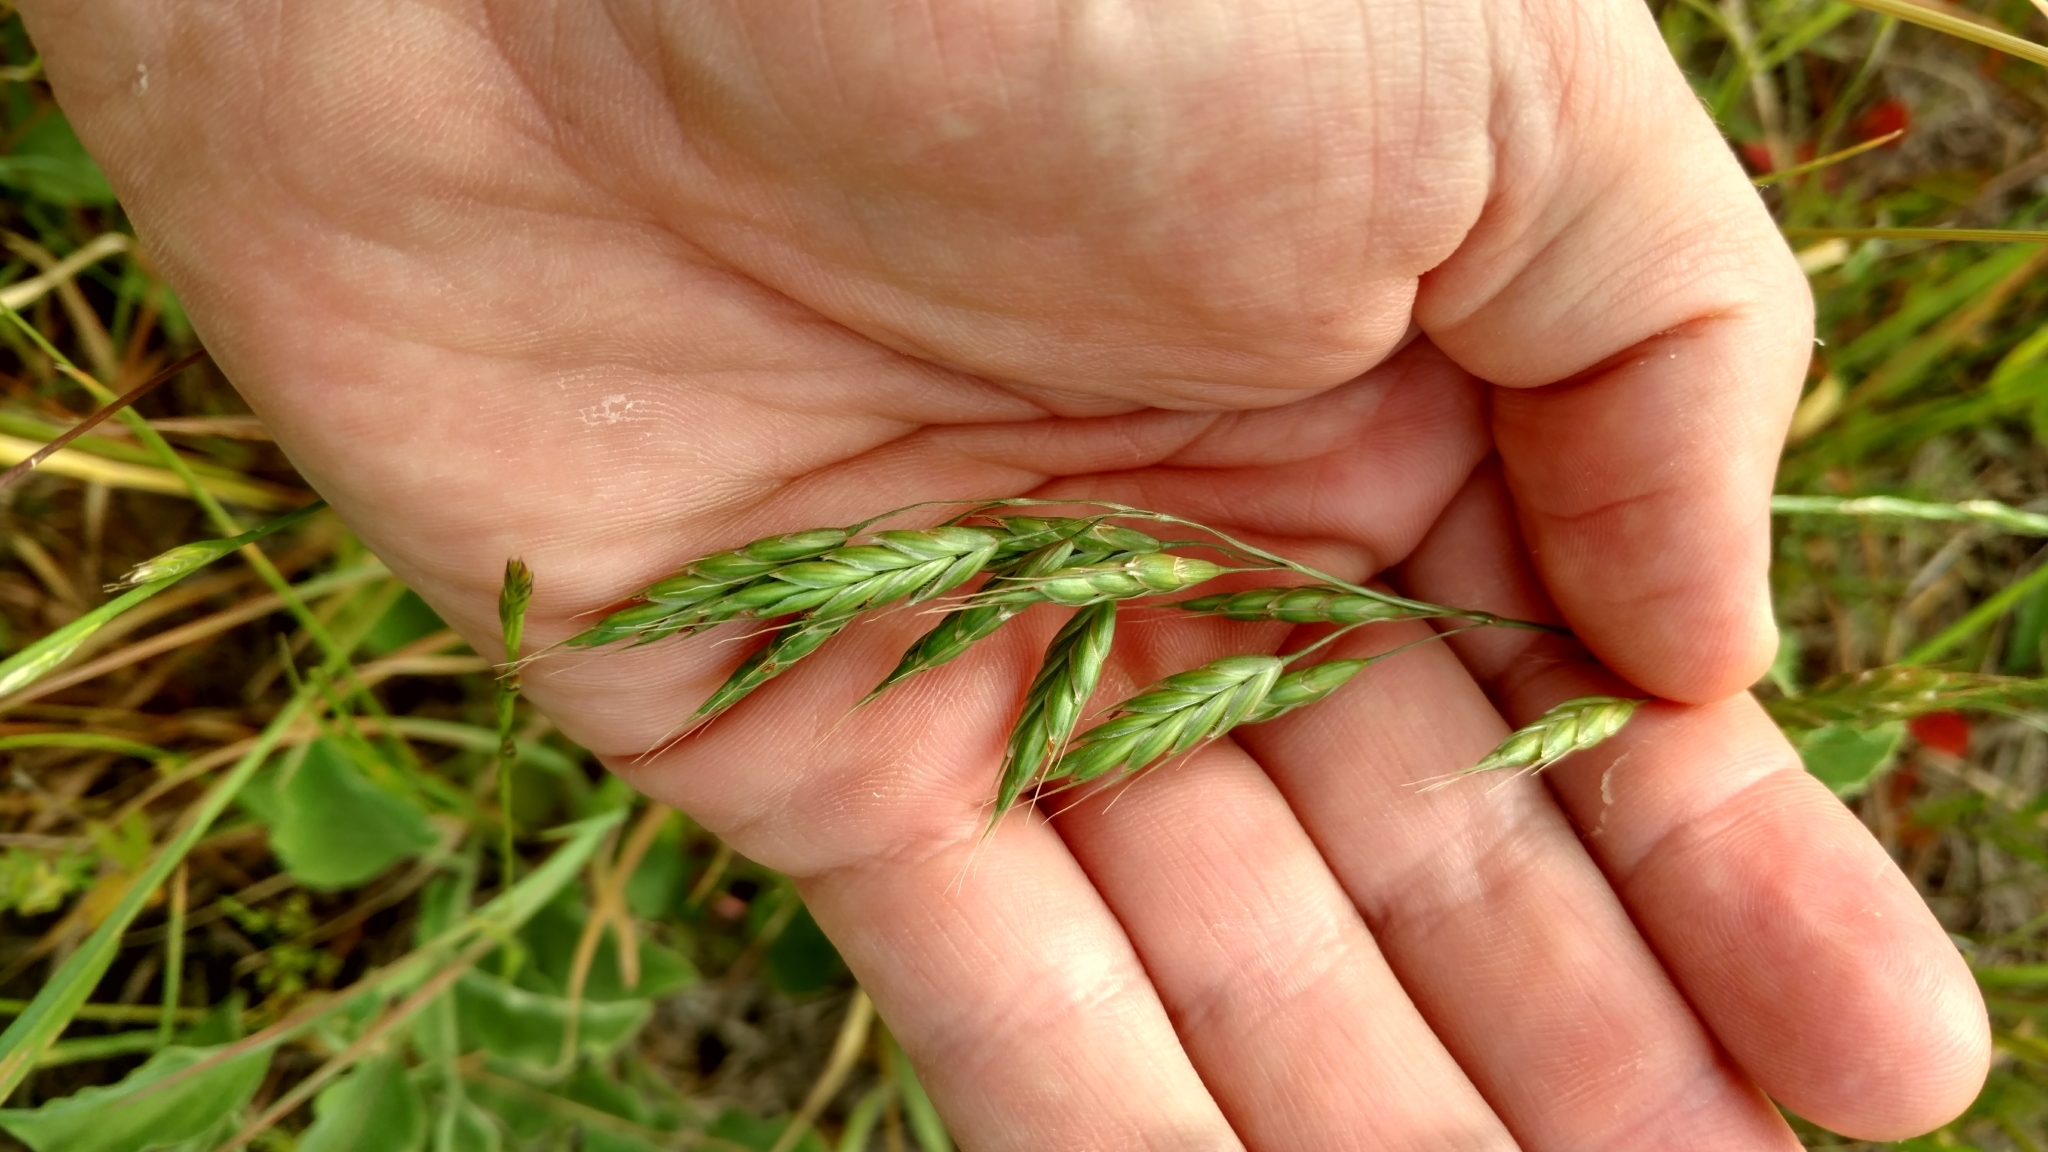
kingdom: Plantae
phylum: Tracheophyta
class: Liliopsida
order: Poales
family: Poaceae
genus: Bromus
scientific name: Bromus japonicus
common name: Japanese brome
